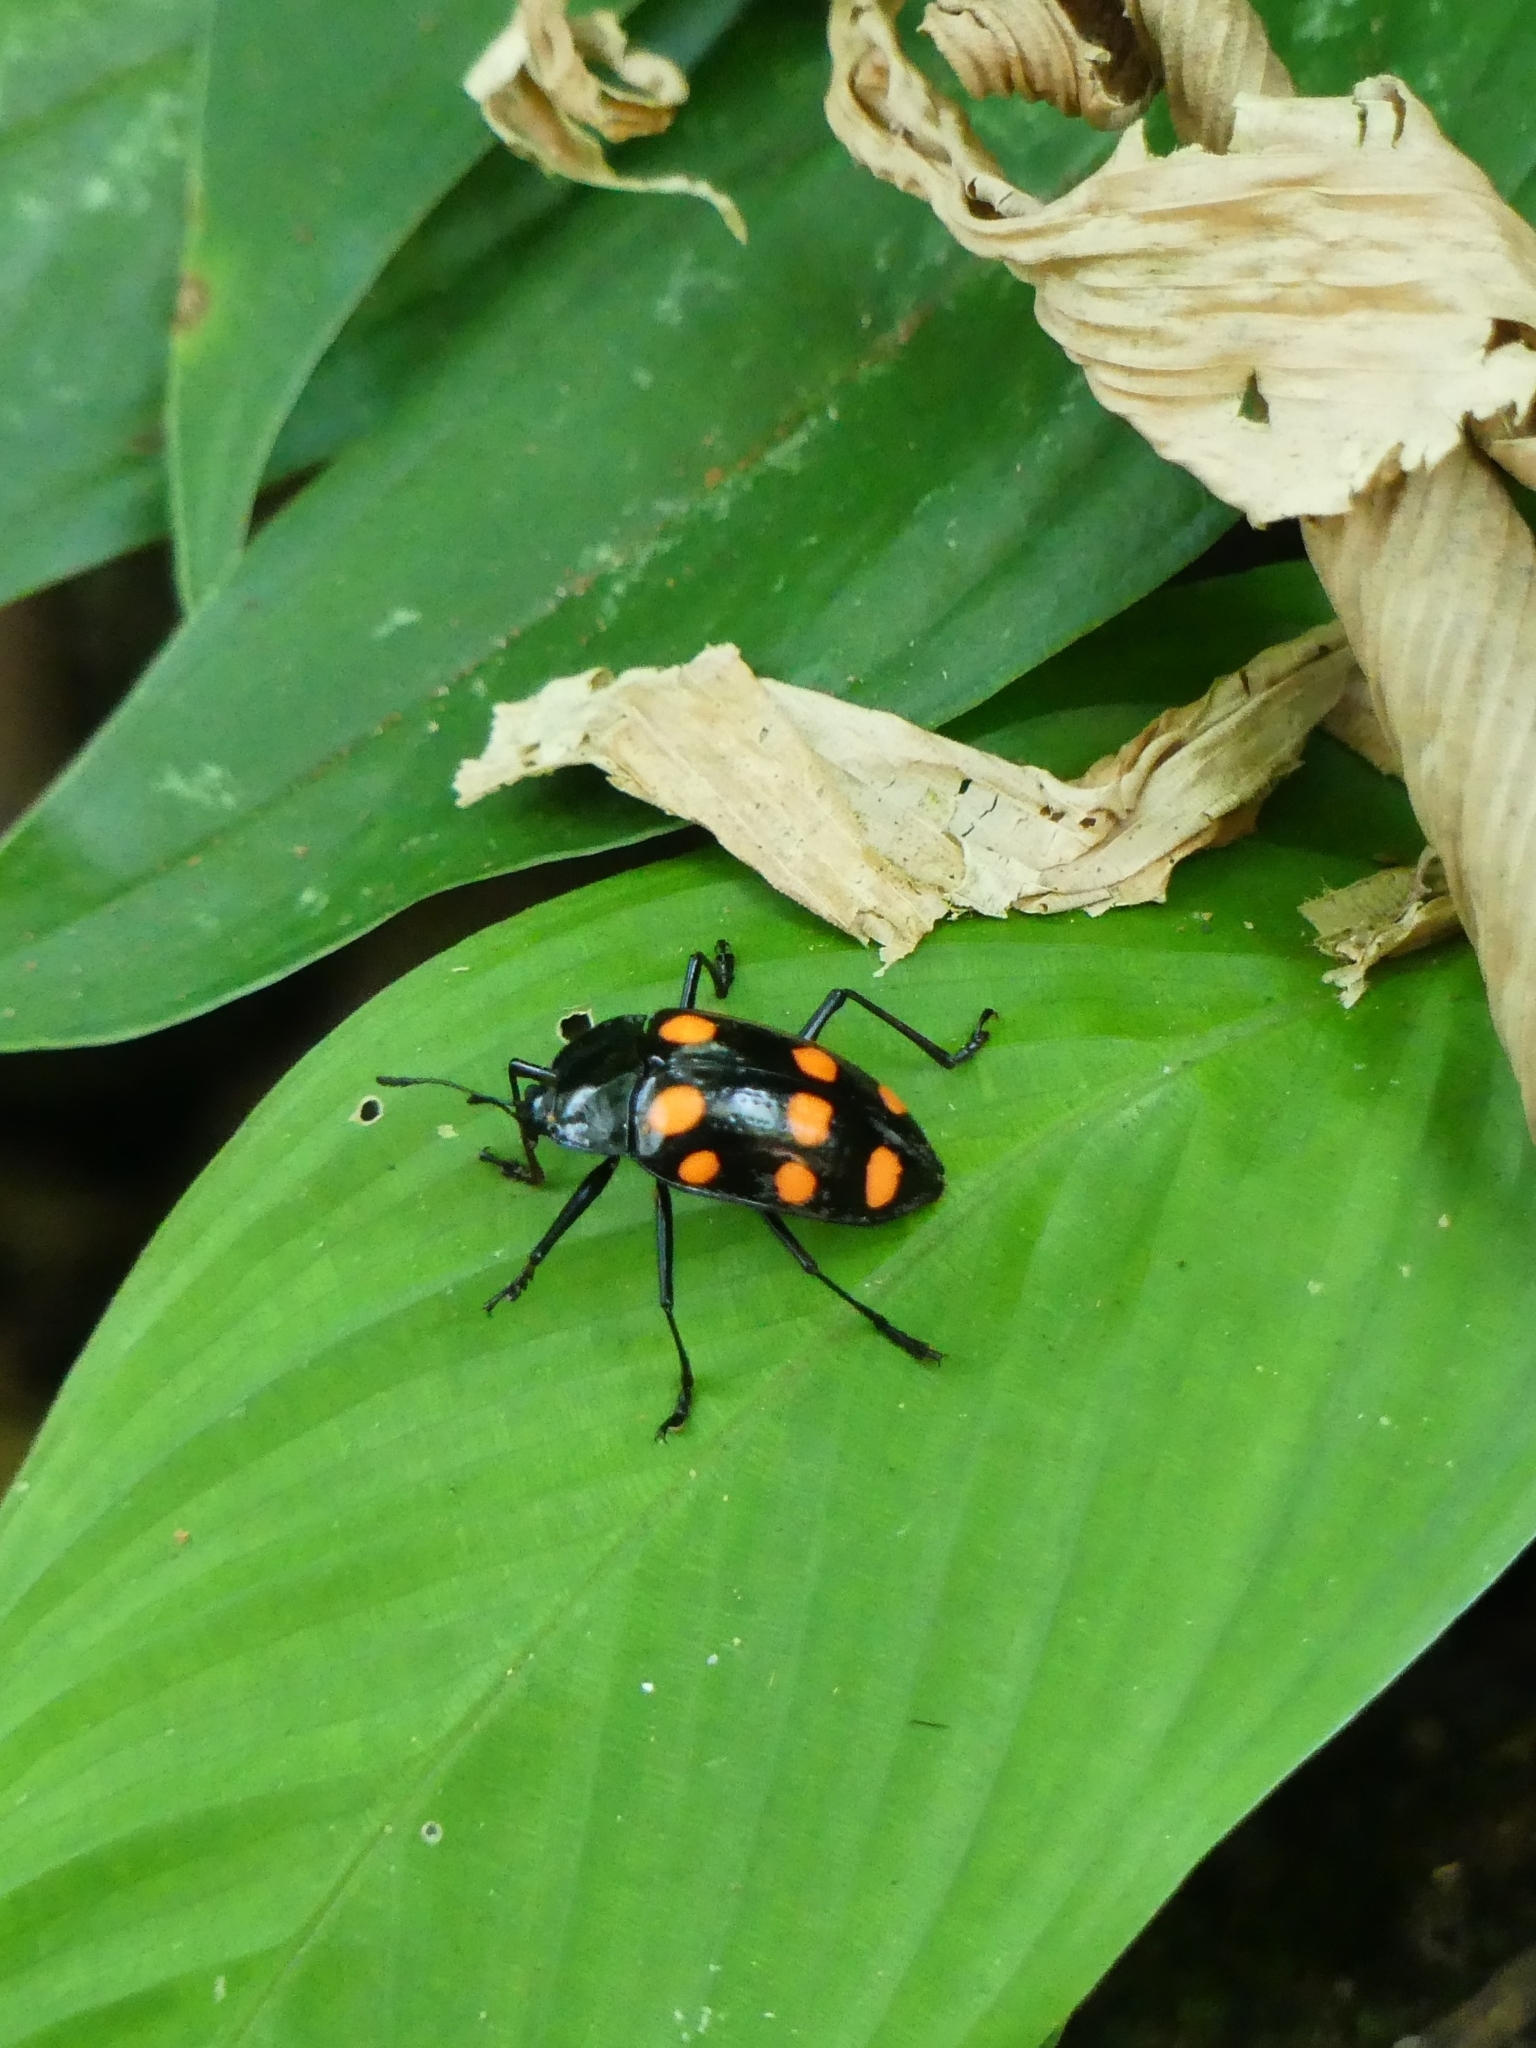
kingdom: Animalia
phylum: Arthropoda
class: Insecta
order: Coleoptera
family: Erotylidae
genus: Scaphidomorphus
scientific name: Scaphidomorphus quinquepunctatus
